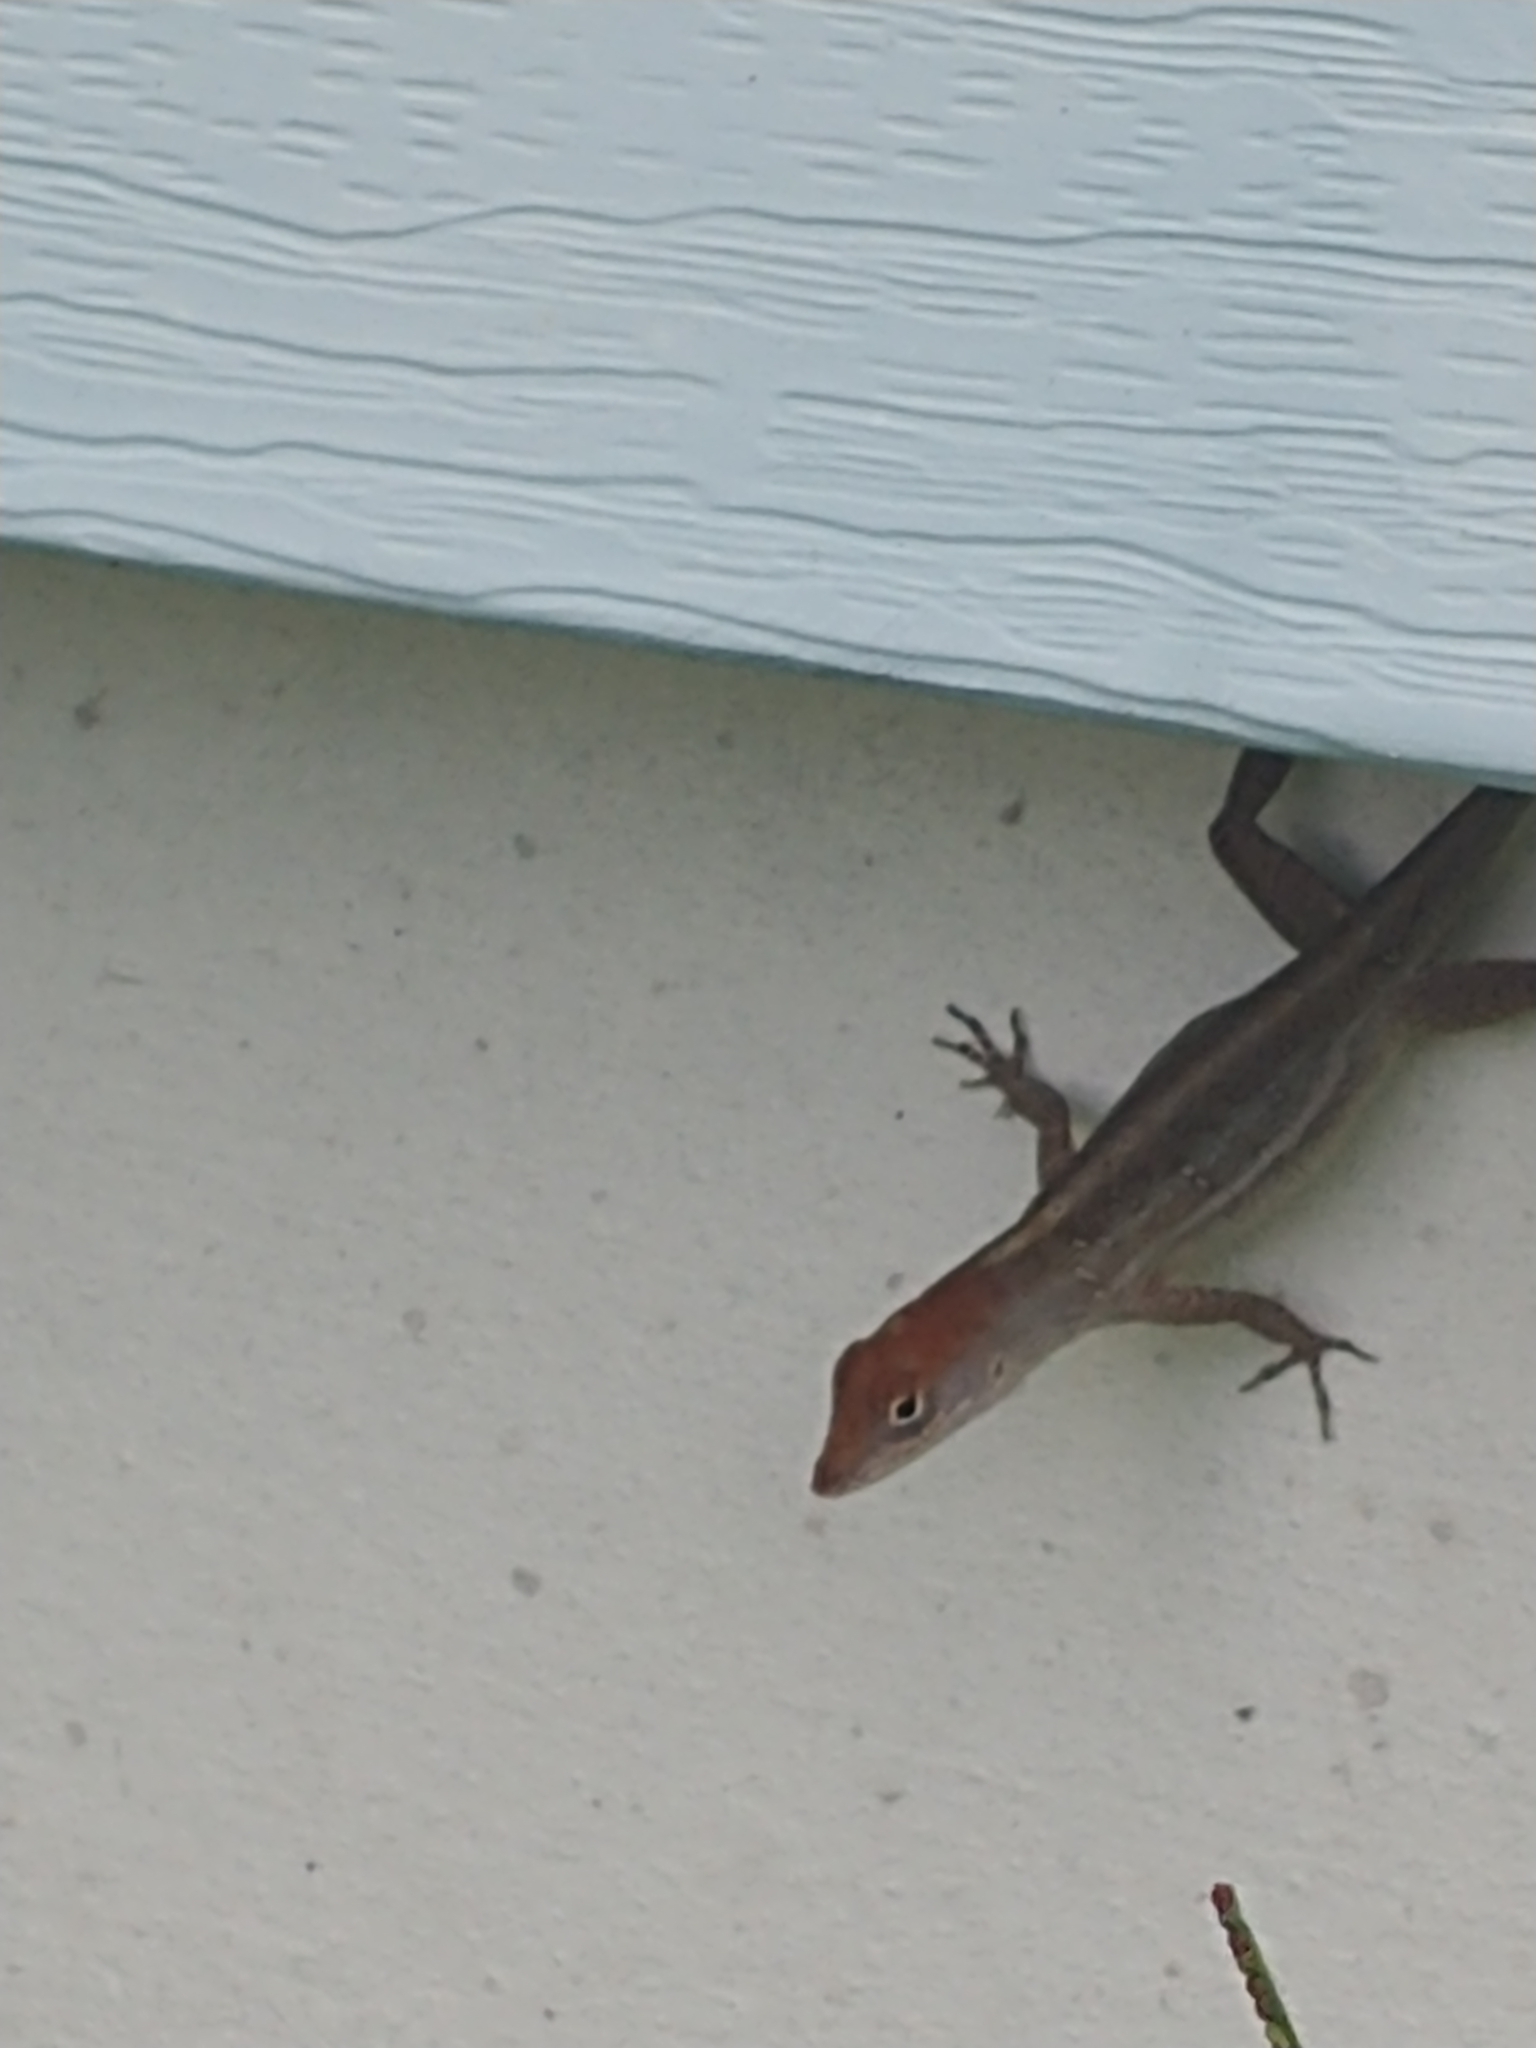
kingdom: Animalia
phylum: Chordata
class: Squamata
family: Dactyloidae
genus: Anolis
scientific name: Anolis sagrei
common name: Brown anole
